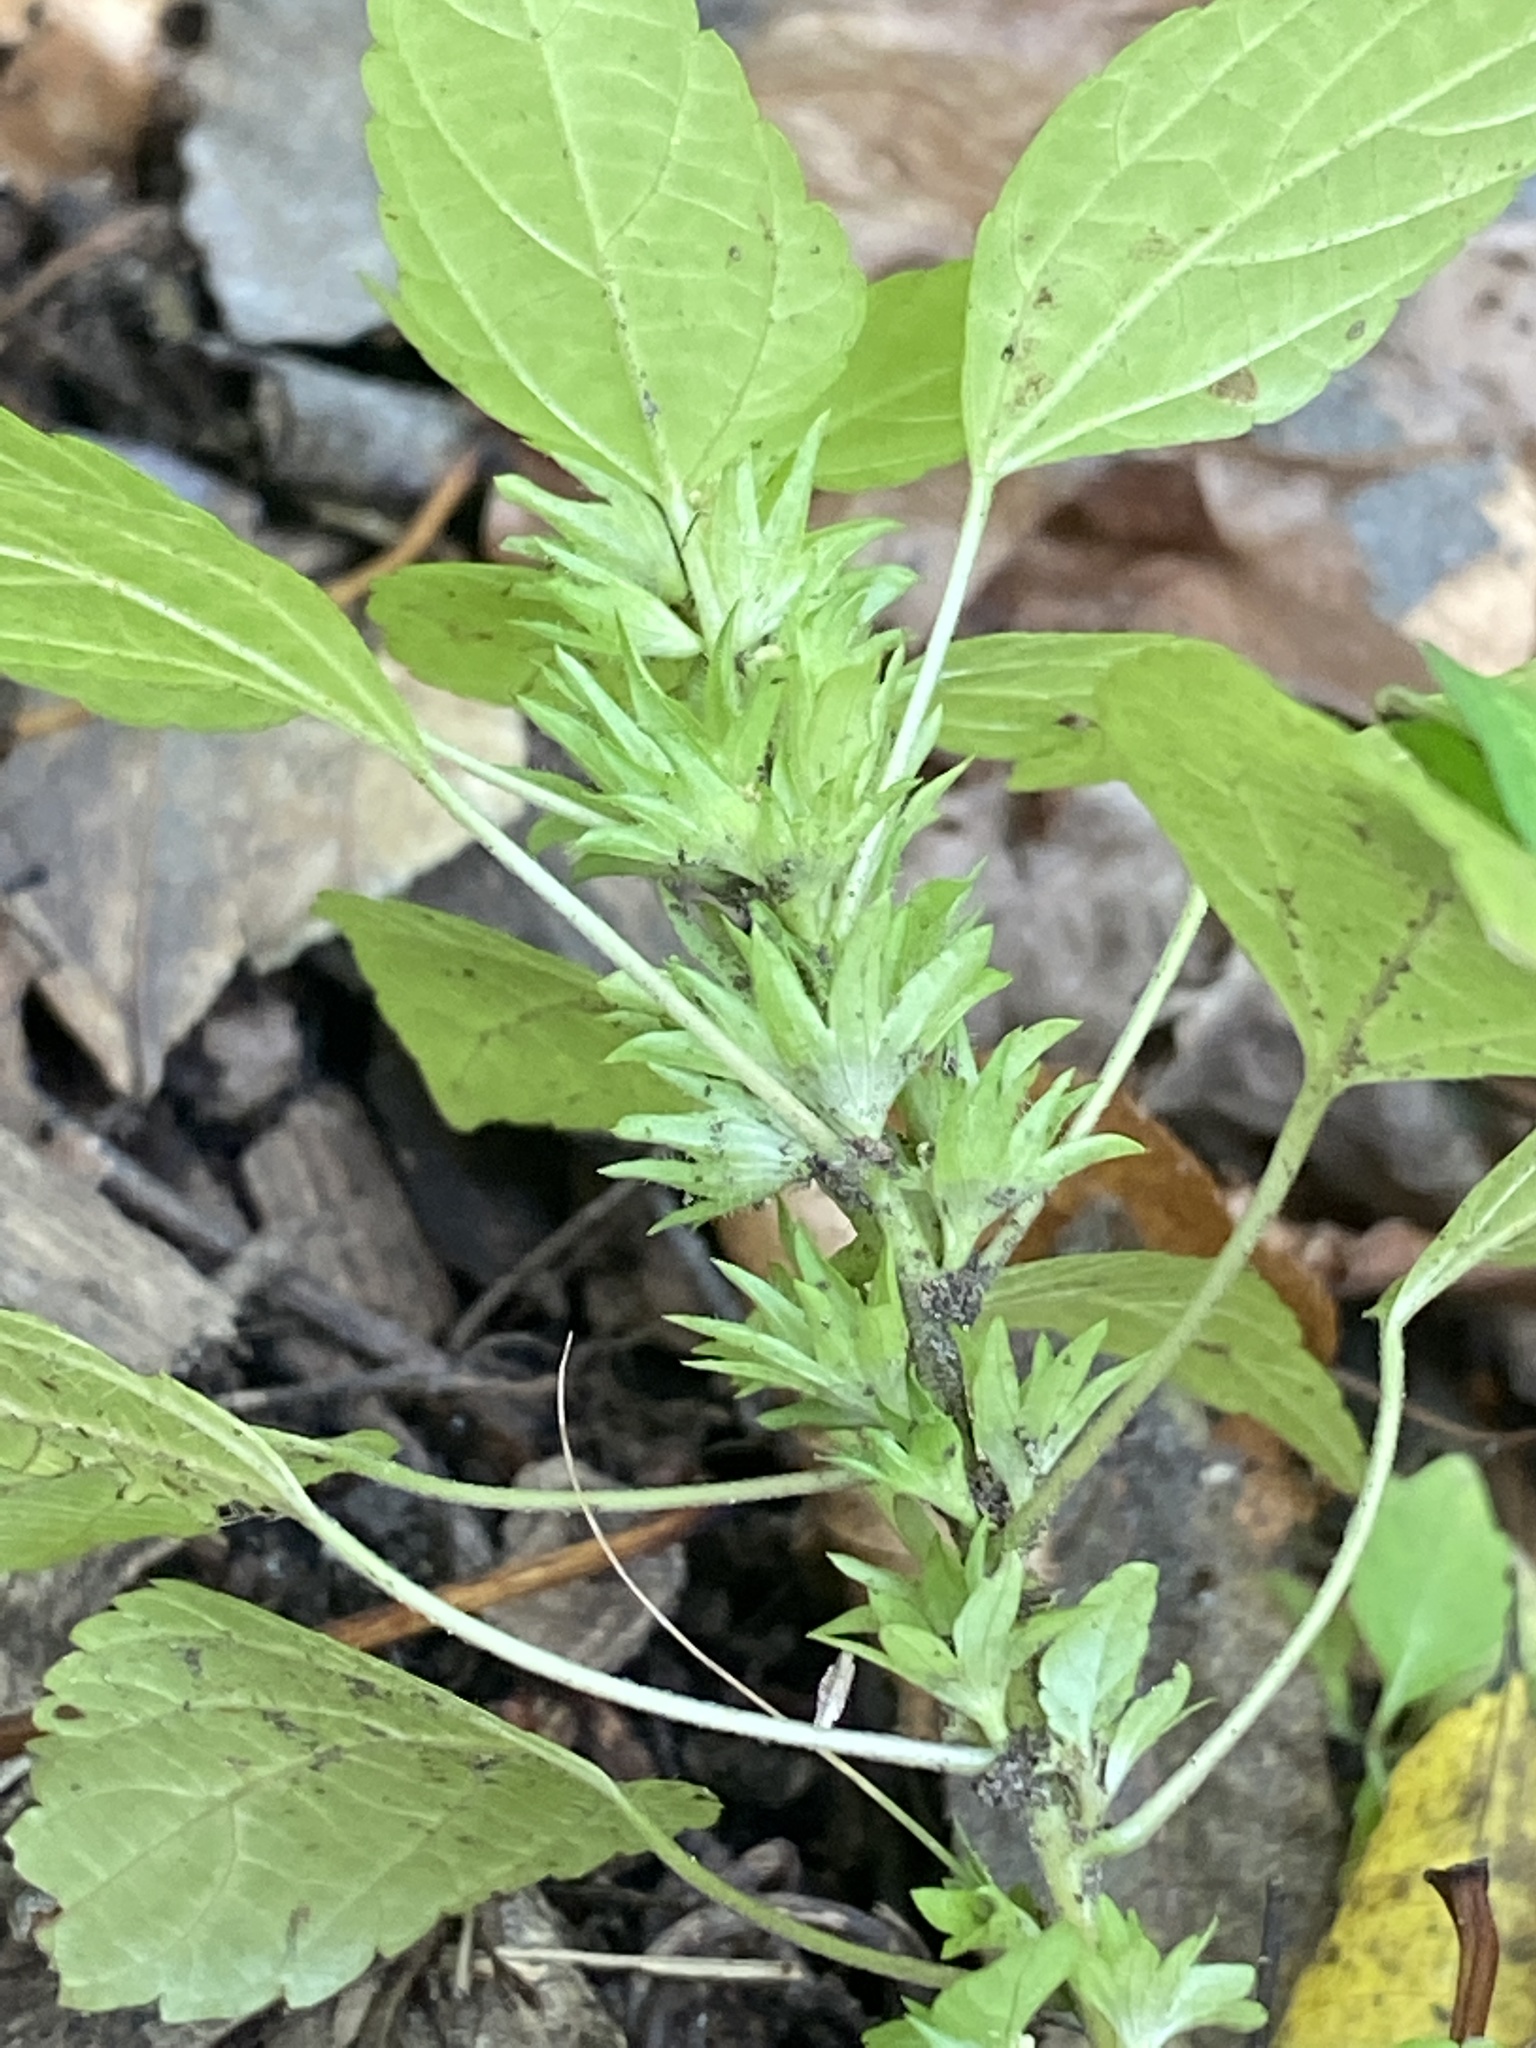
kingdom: Plantae
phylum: Tracheophyta
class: Magnoliopsida
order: Malpighiales
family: Euphorbiaceae
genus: Acalypha
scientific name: Acalypha rhomboidea
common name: Rhombic copperleaf
